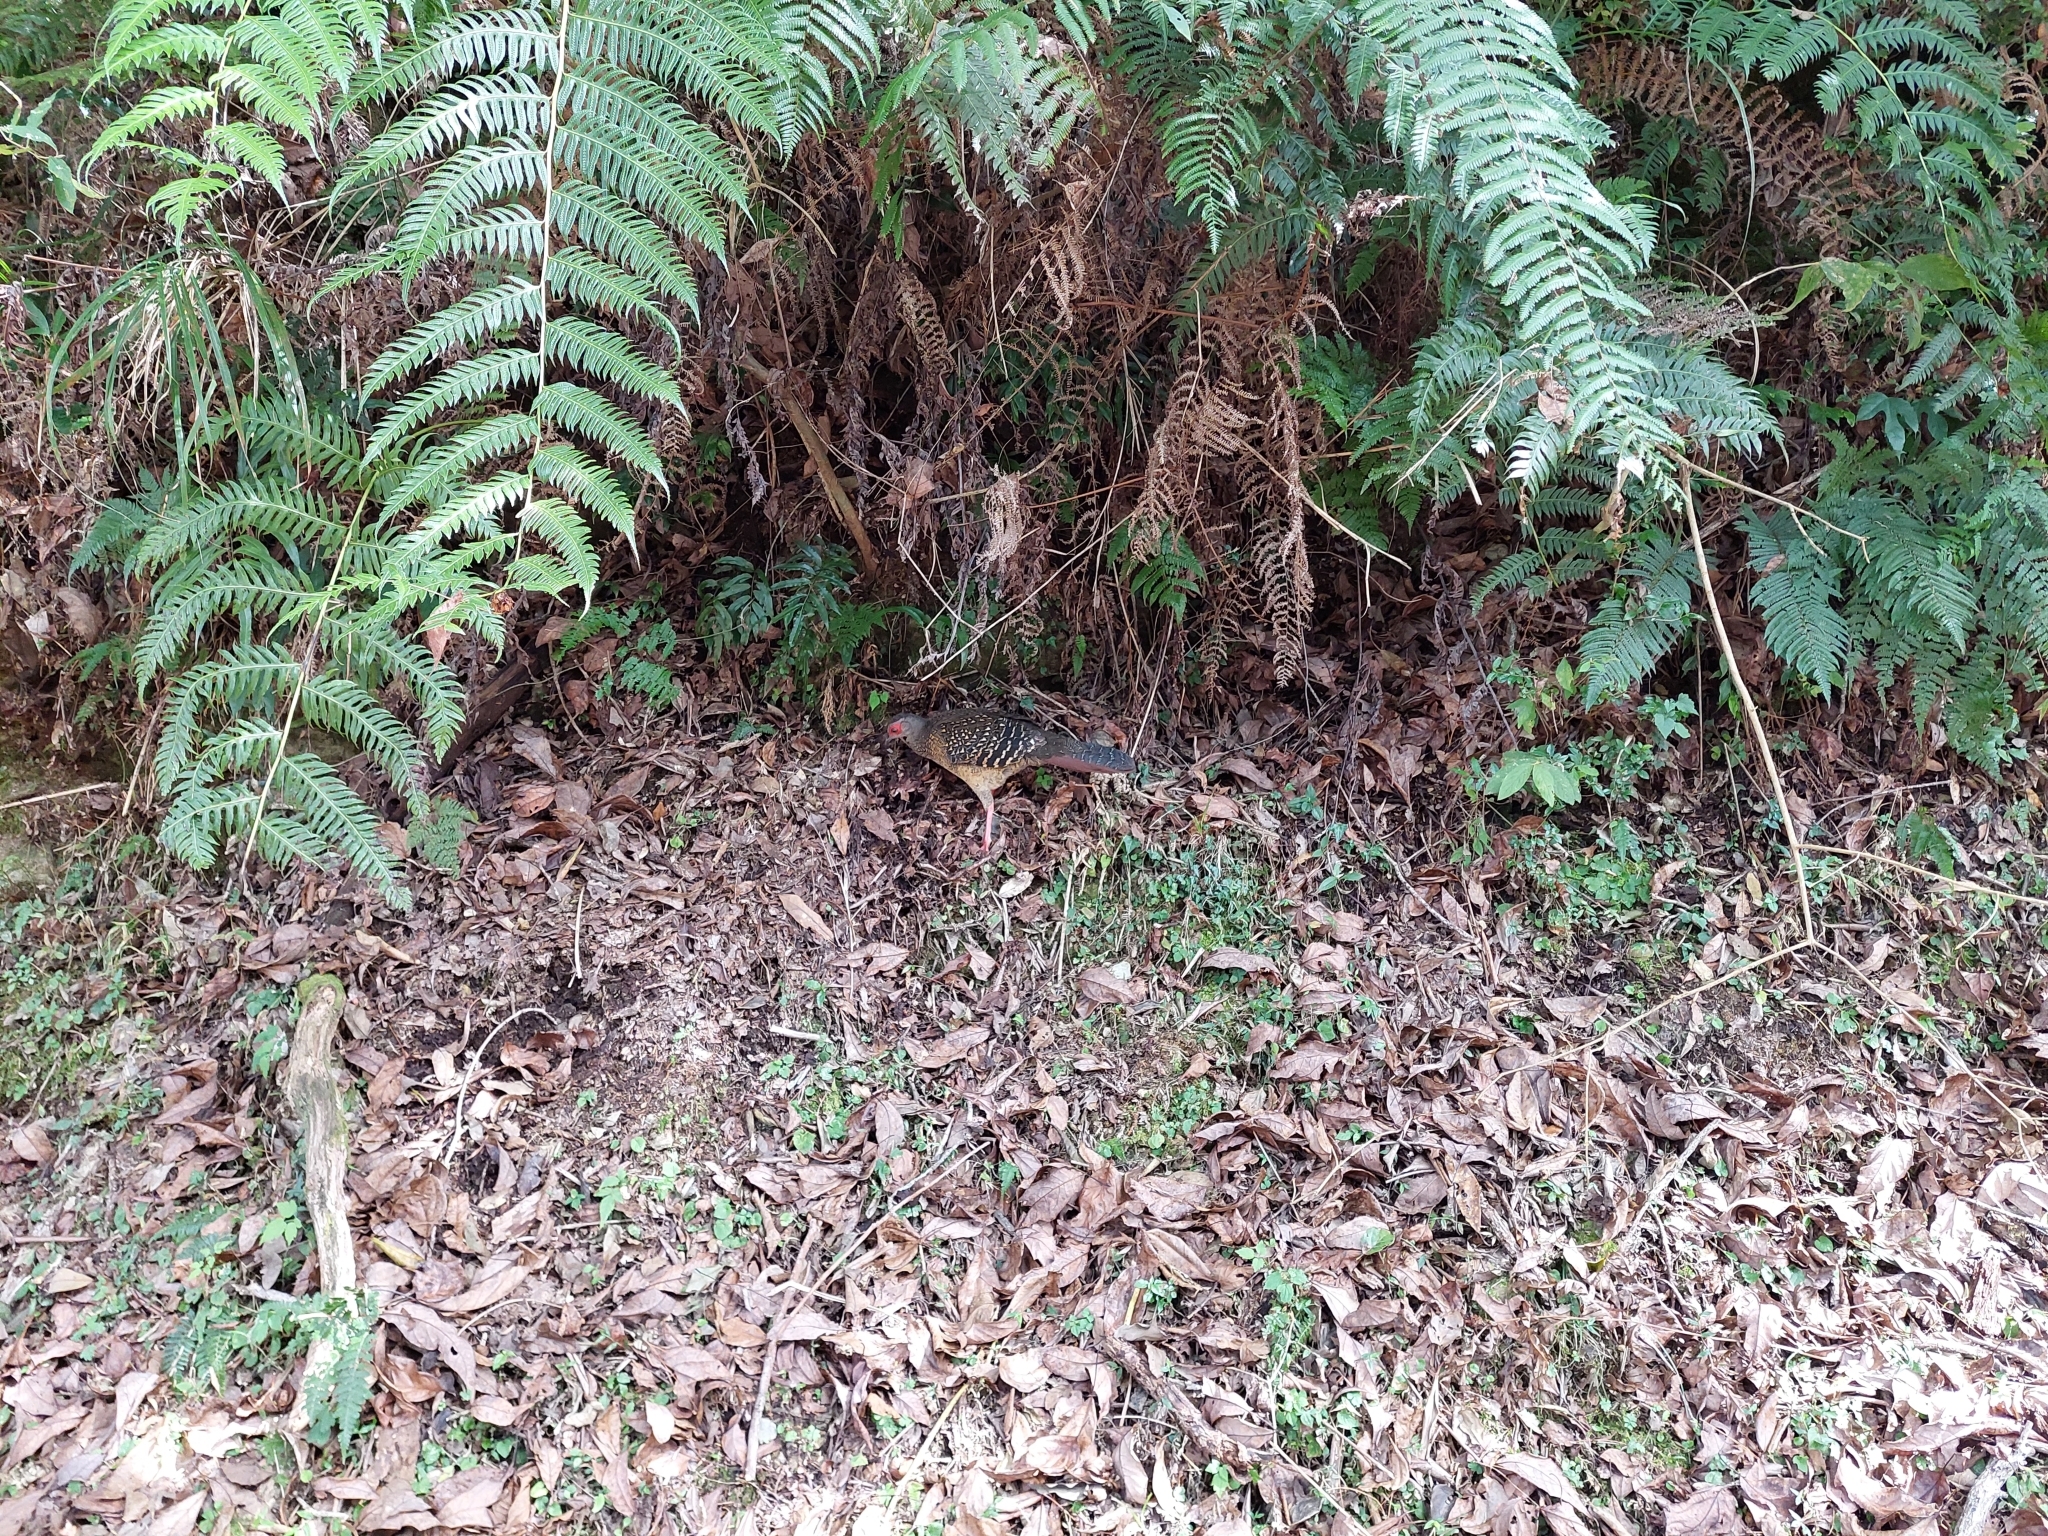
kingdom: Animalia
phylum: Chordata
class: Aves
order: Galliformes
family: Phasianidae
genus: Lophura
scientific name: Lophura swinhoii
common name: Swinhoe's pheasant
